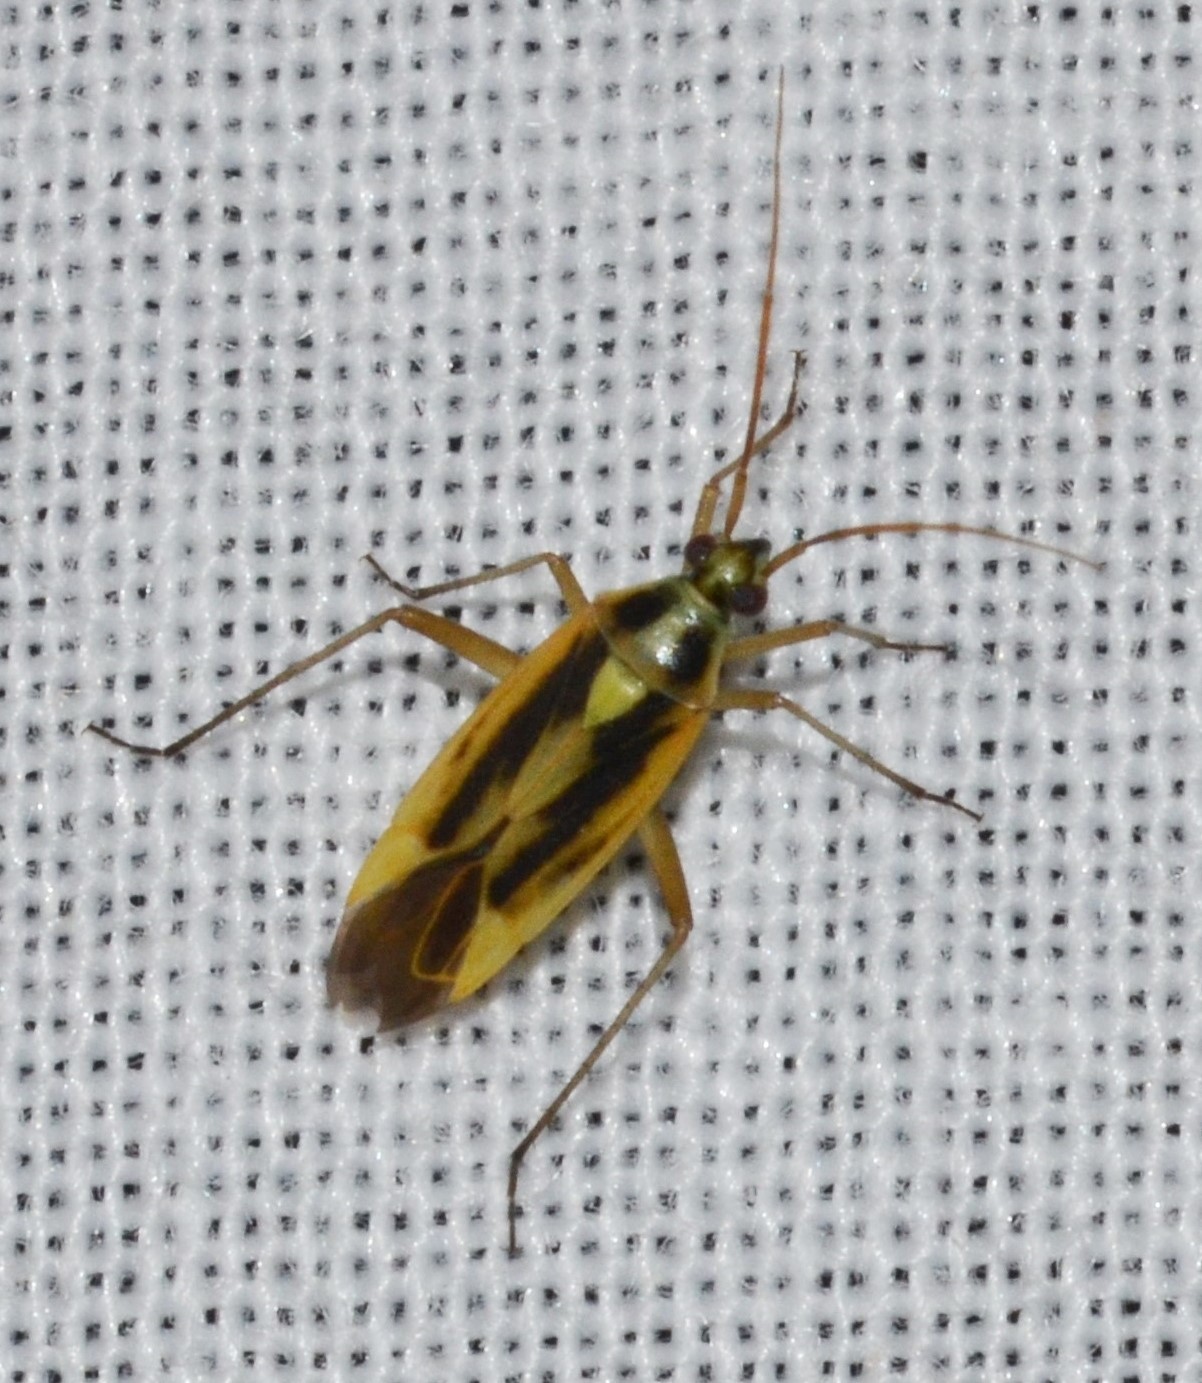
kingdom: Animalia
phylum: Arthropoda
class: Insecta
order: Hemiptera
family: Miridae
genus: Stenotus
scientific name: Stenotus binotatus
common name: Plant bug
